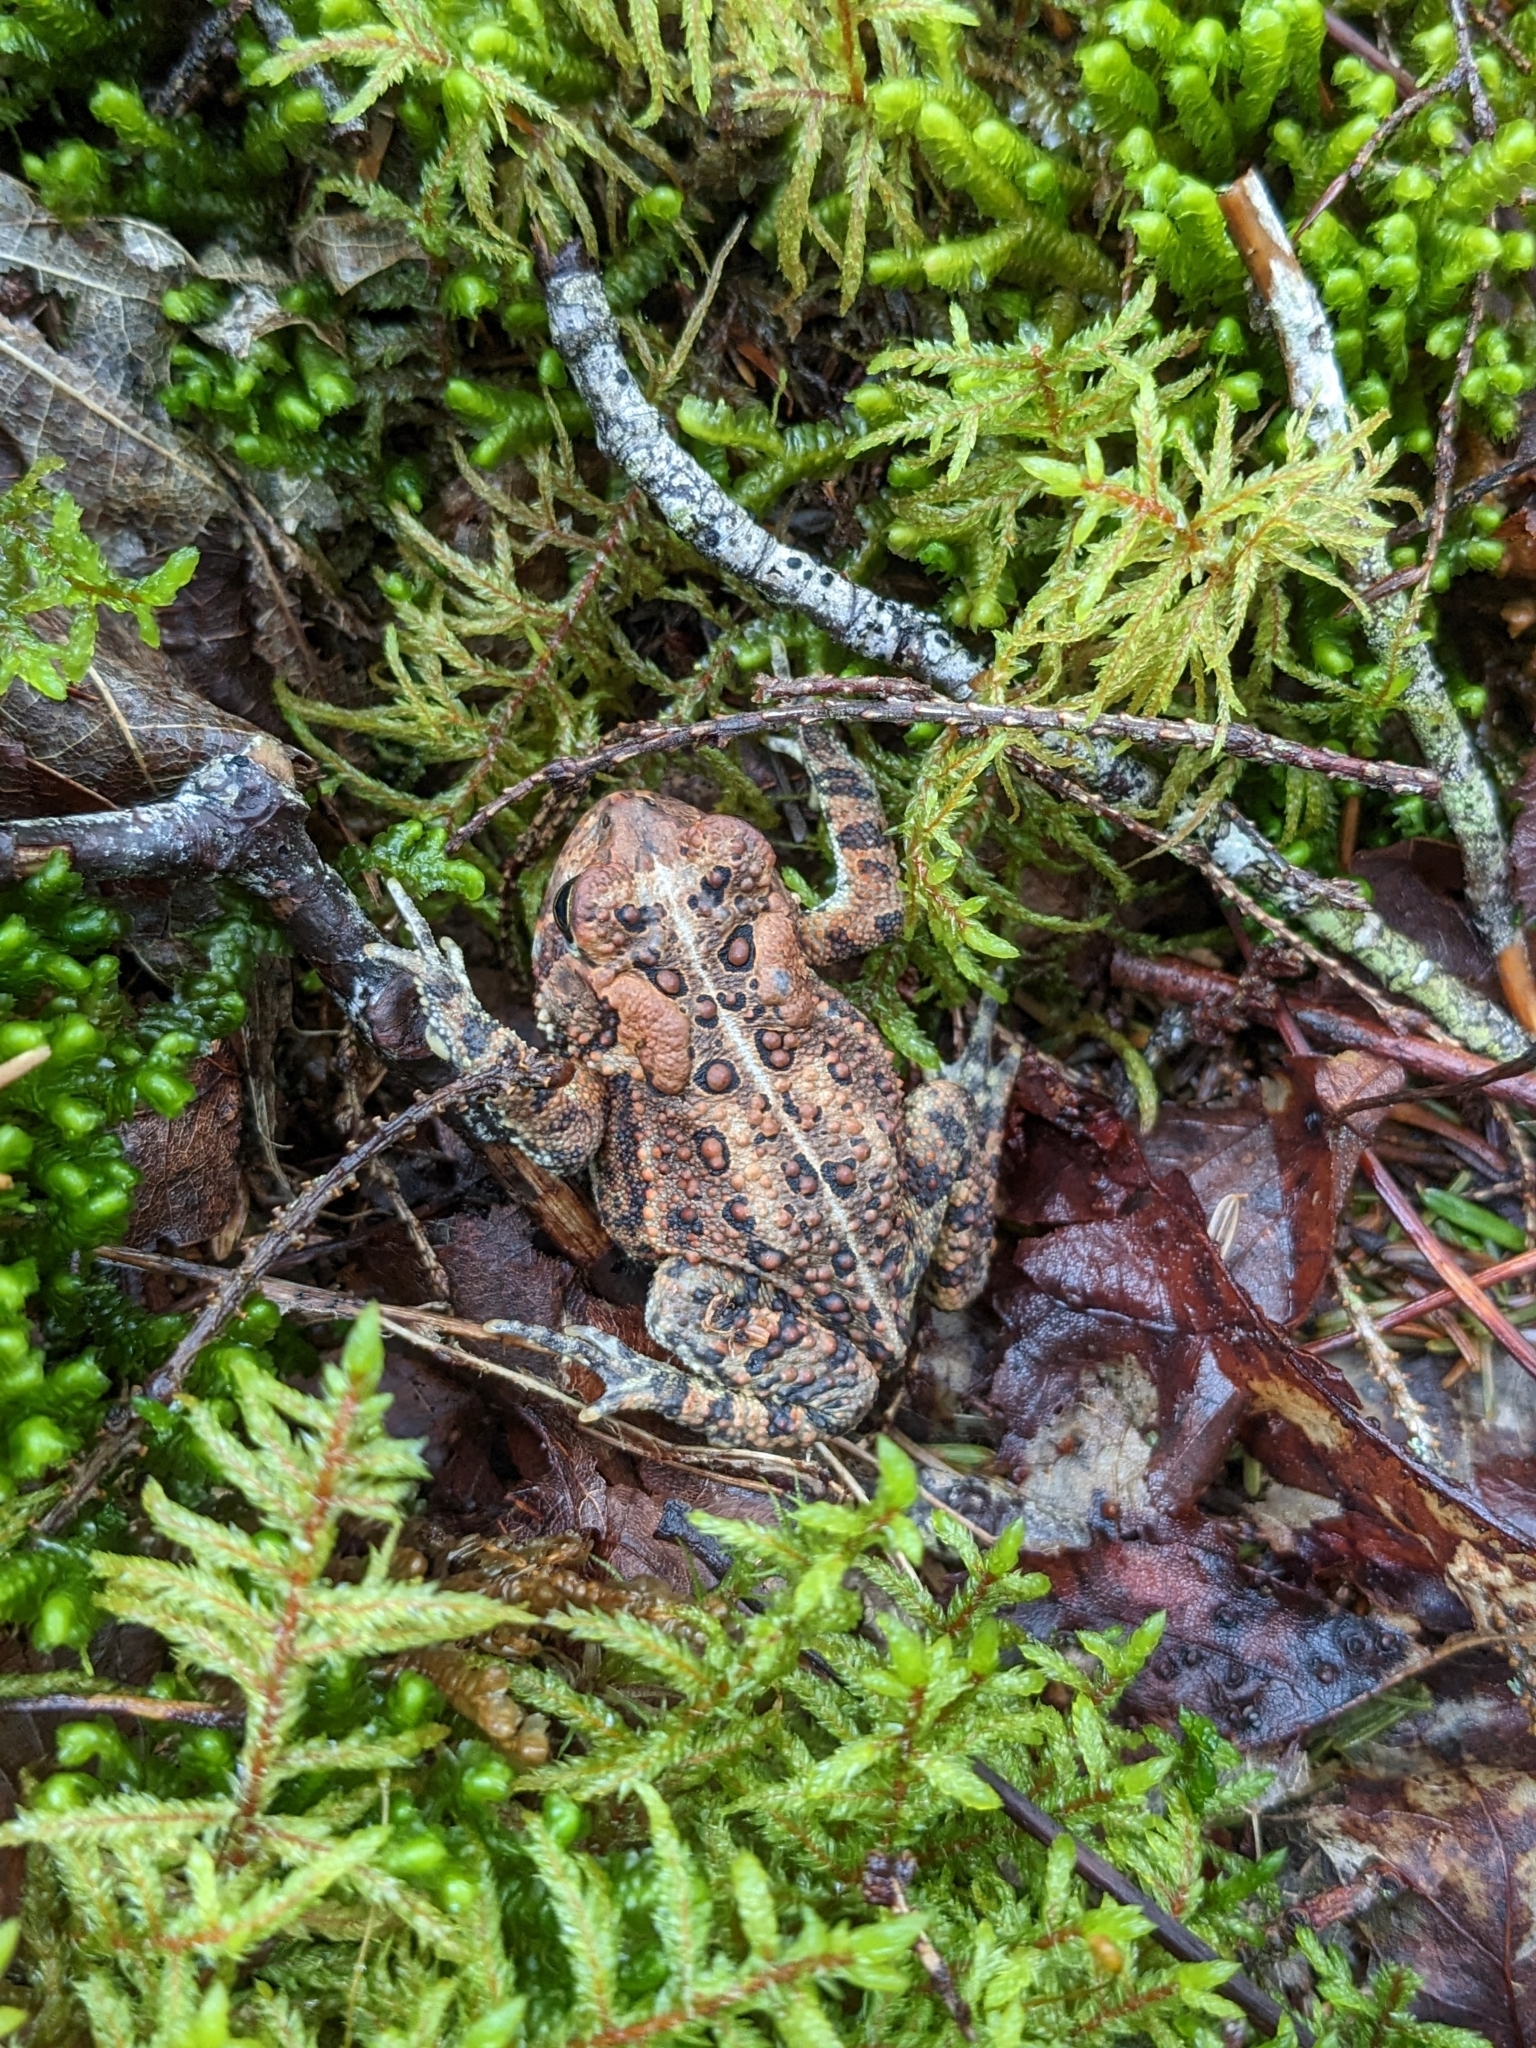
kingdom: Animalia
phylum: Chordata
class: Amphibia
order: Anura
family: Bufonidae
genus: Anaxyrus
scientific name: Anaxyrus americanus
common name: American toad
